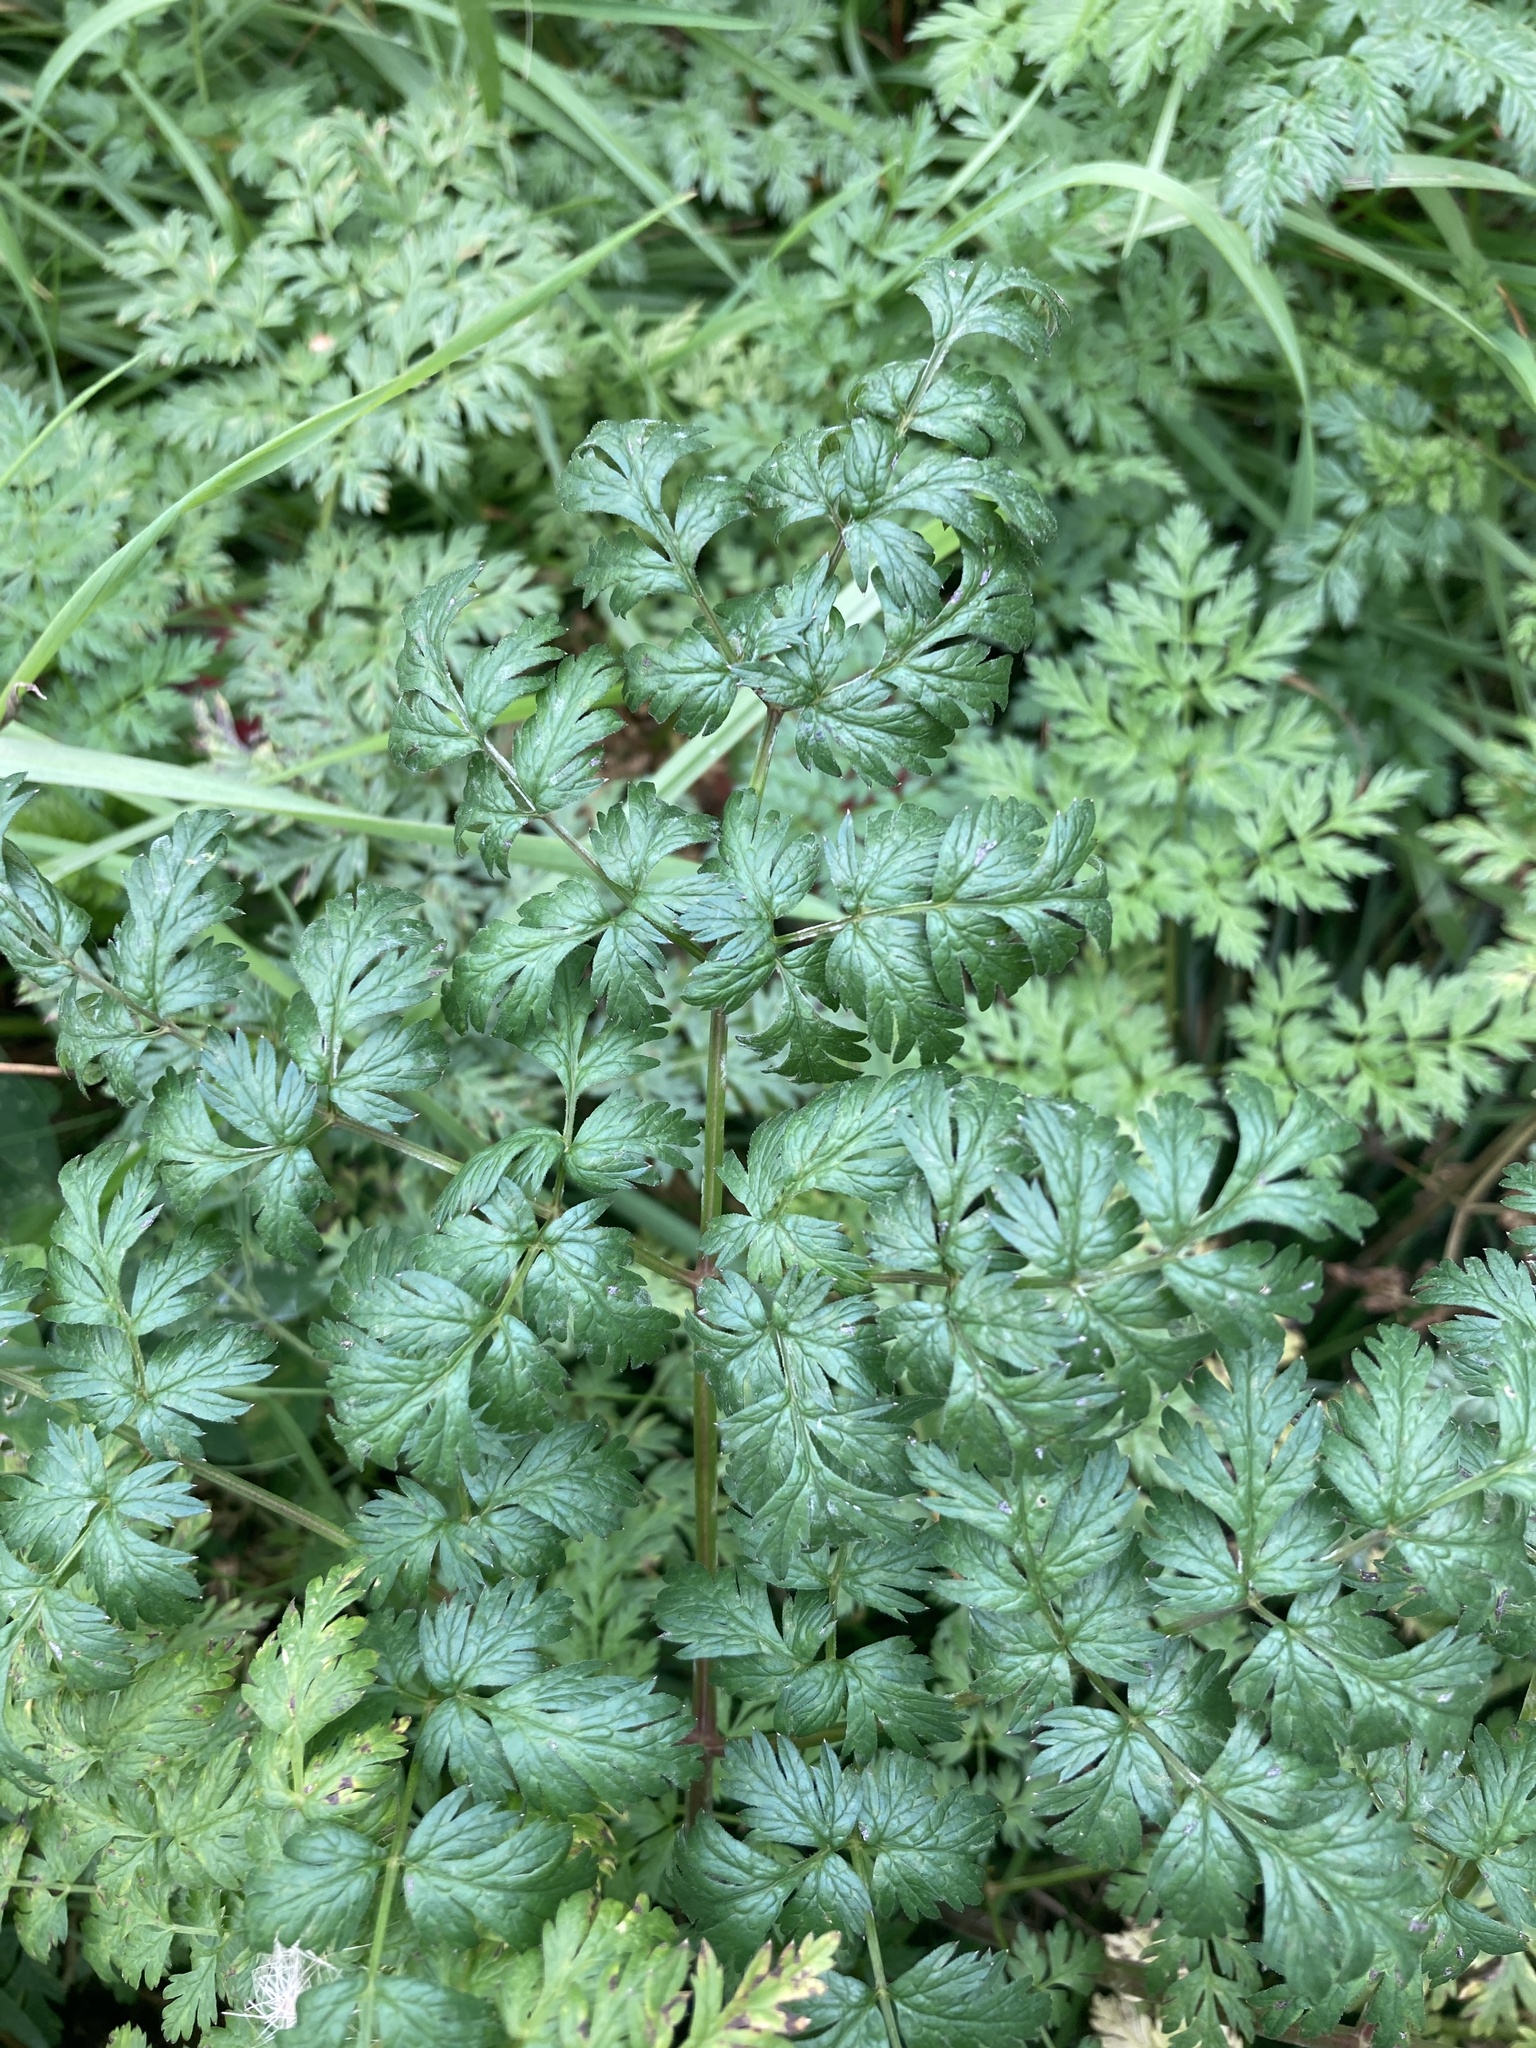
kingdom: Plantae
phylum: Tracheophyta
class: Magnoliopsida
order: Apiales
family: Apiaceae
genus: Anthriscus
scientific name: Anthriscus sylvestris
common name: Cow parsley
